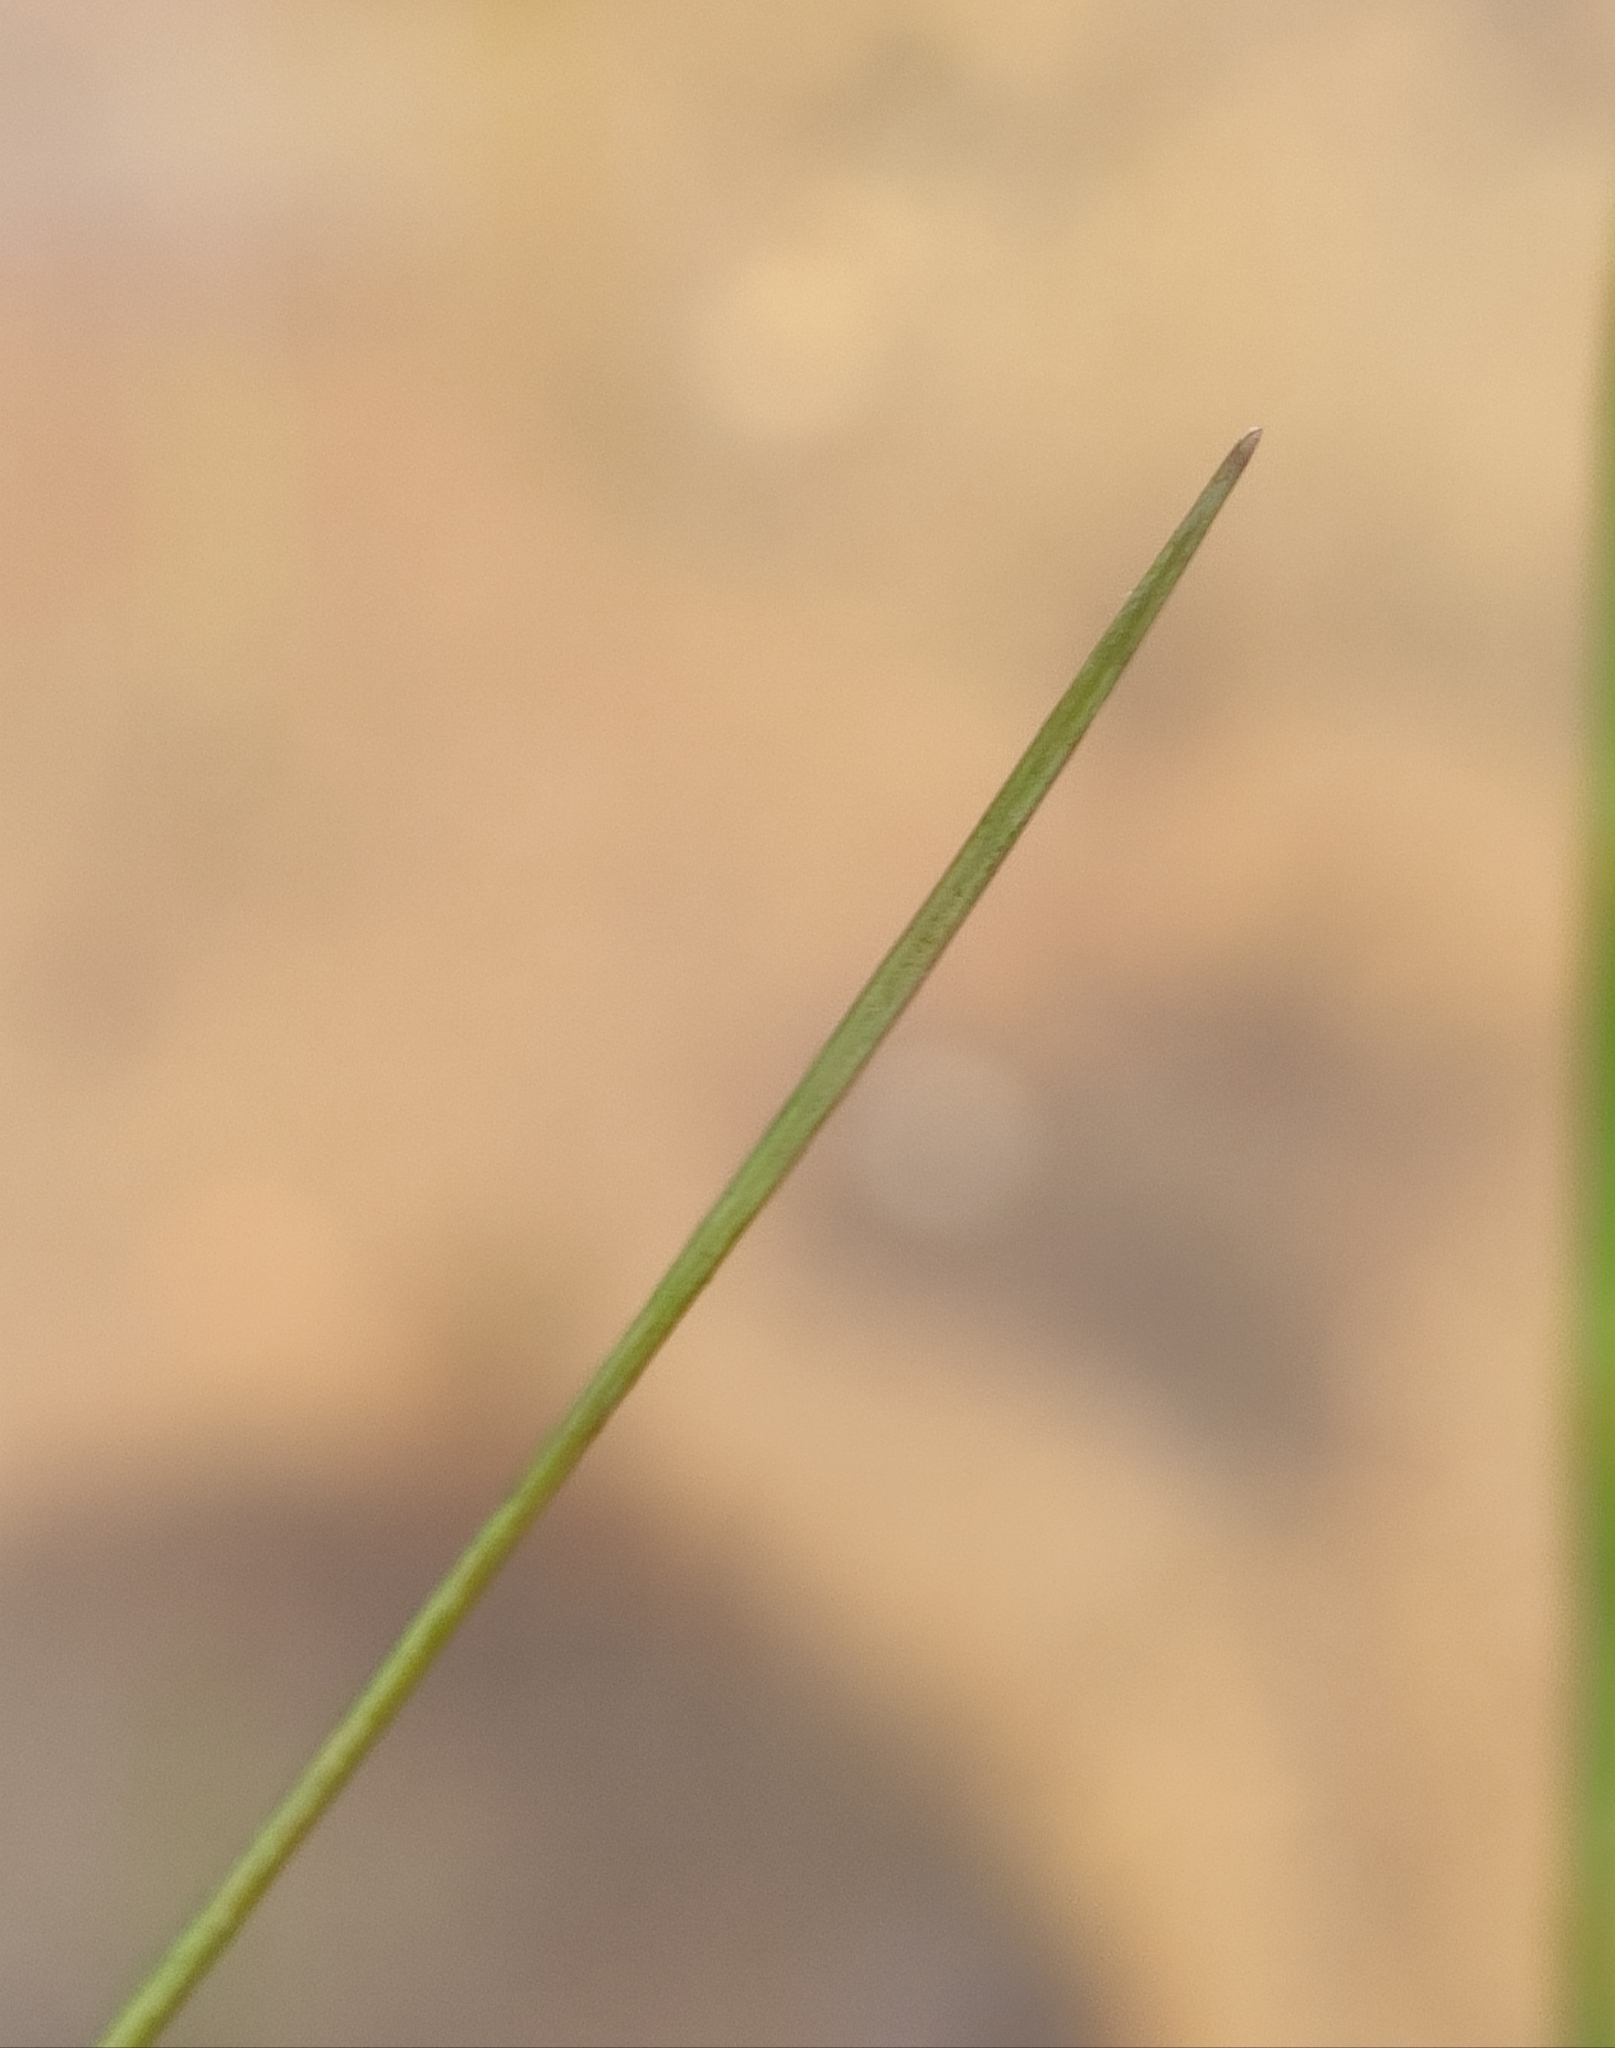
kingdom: Plantae
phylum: Tracheophyta
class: Liliopsida
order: Alismatales
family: Potamogetonaceae
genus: Stuckenia
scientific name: Stuckenia pectinata
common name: Sago pondweed
